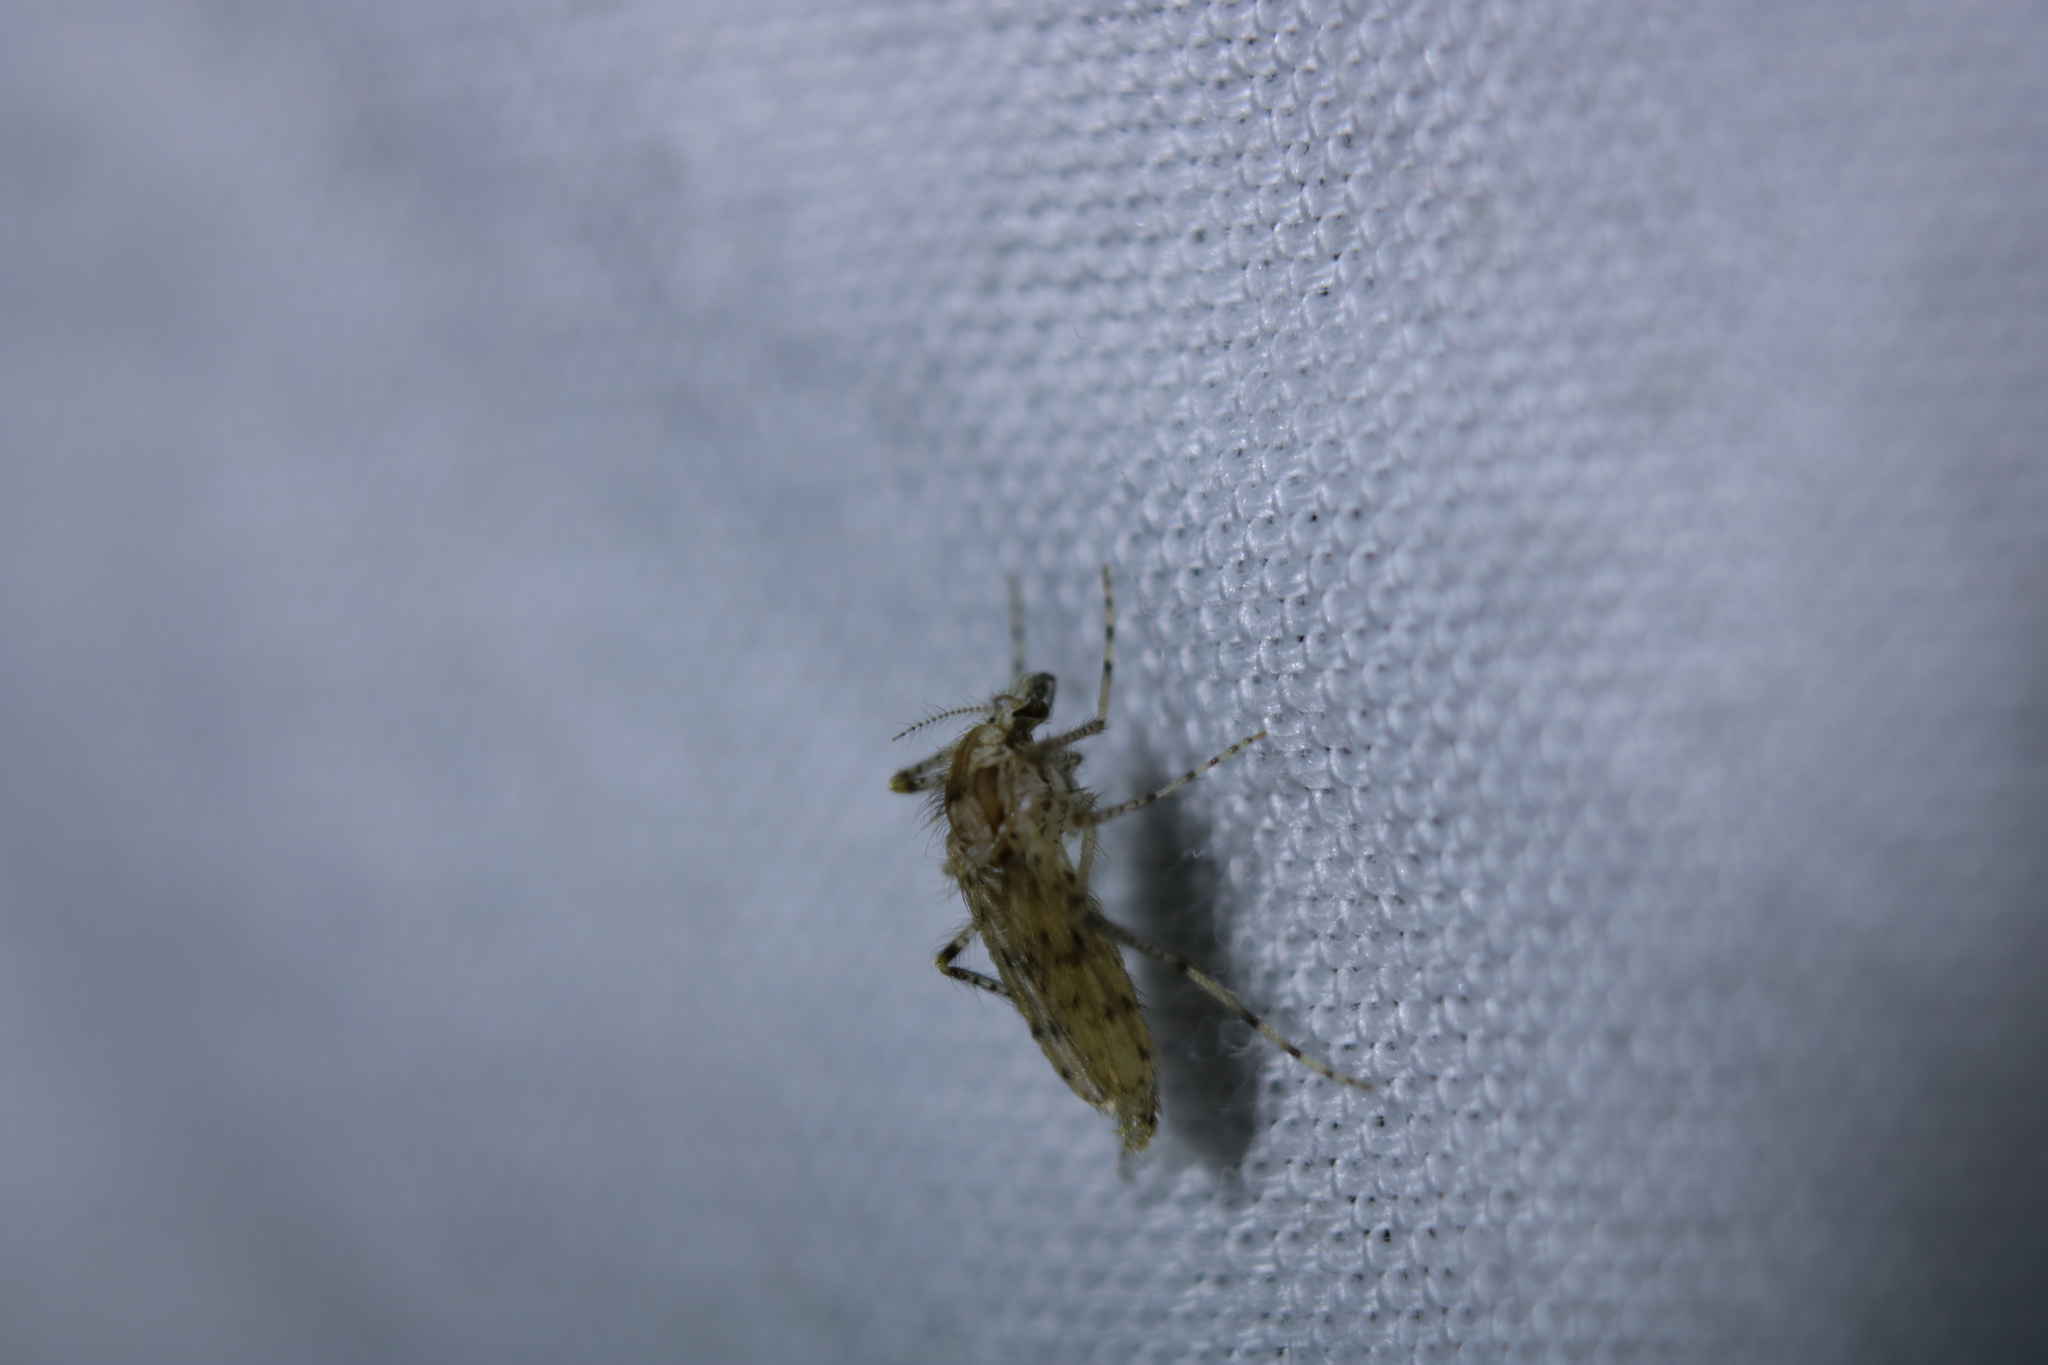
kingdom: Animalia
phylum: Arthropoda
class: Insecta
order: Diptera
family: Chaoboridae
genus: Chaoborus
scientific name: Chaoborus punctipennis
